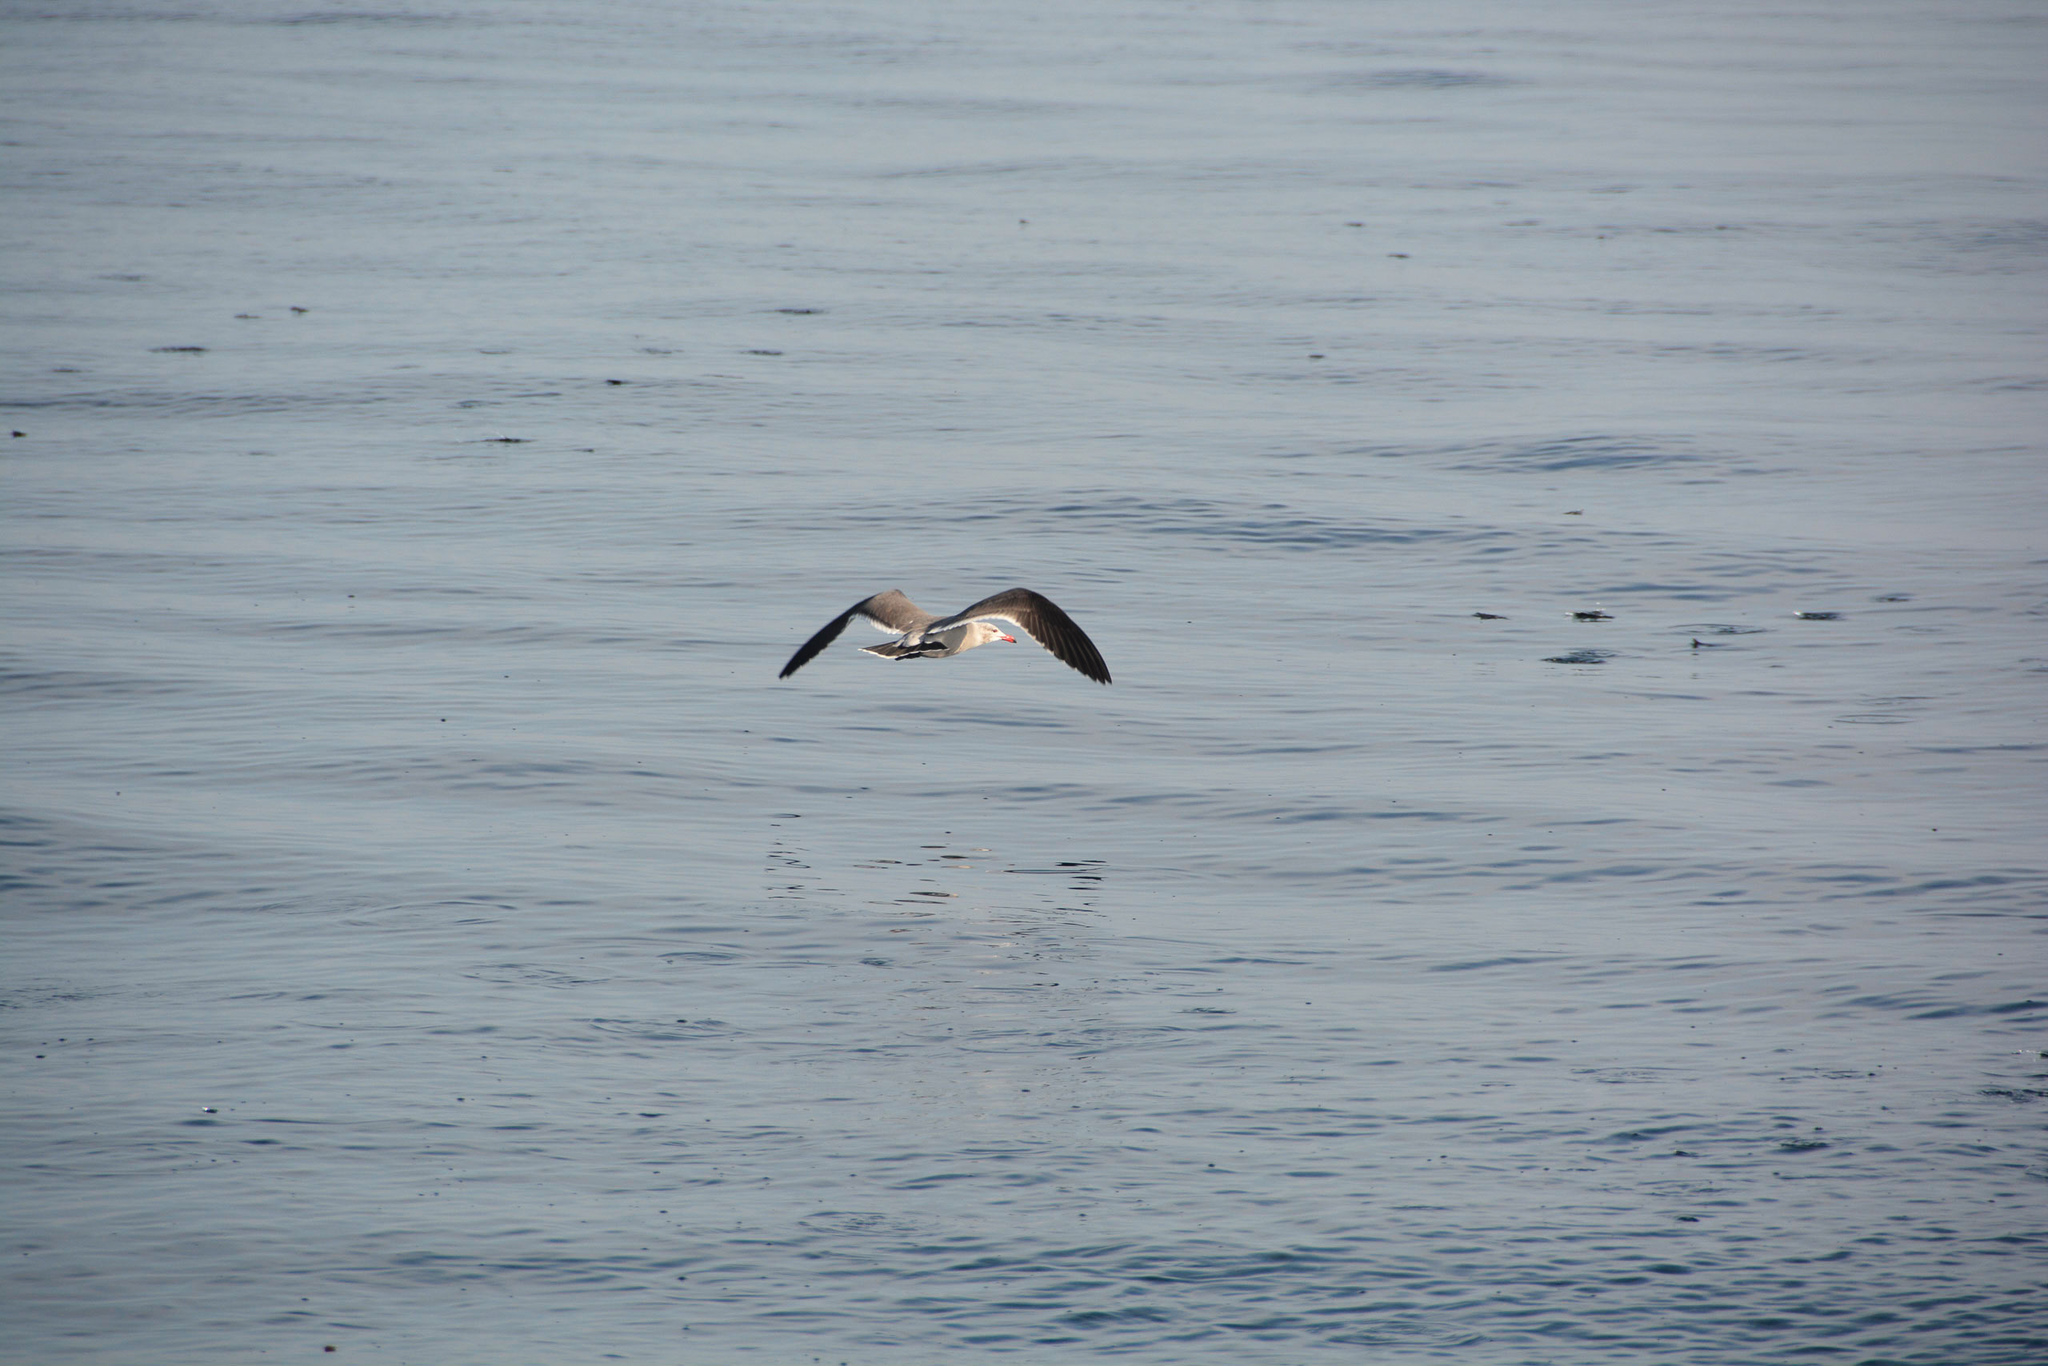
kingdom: Animalia
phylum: Chordata
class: Aves
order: Charadriiformes
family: Laridae
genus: Larus
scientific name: Larus heermanni
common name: Heermann's gull
